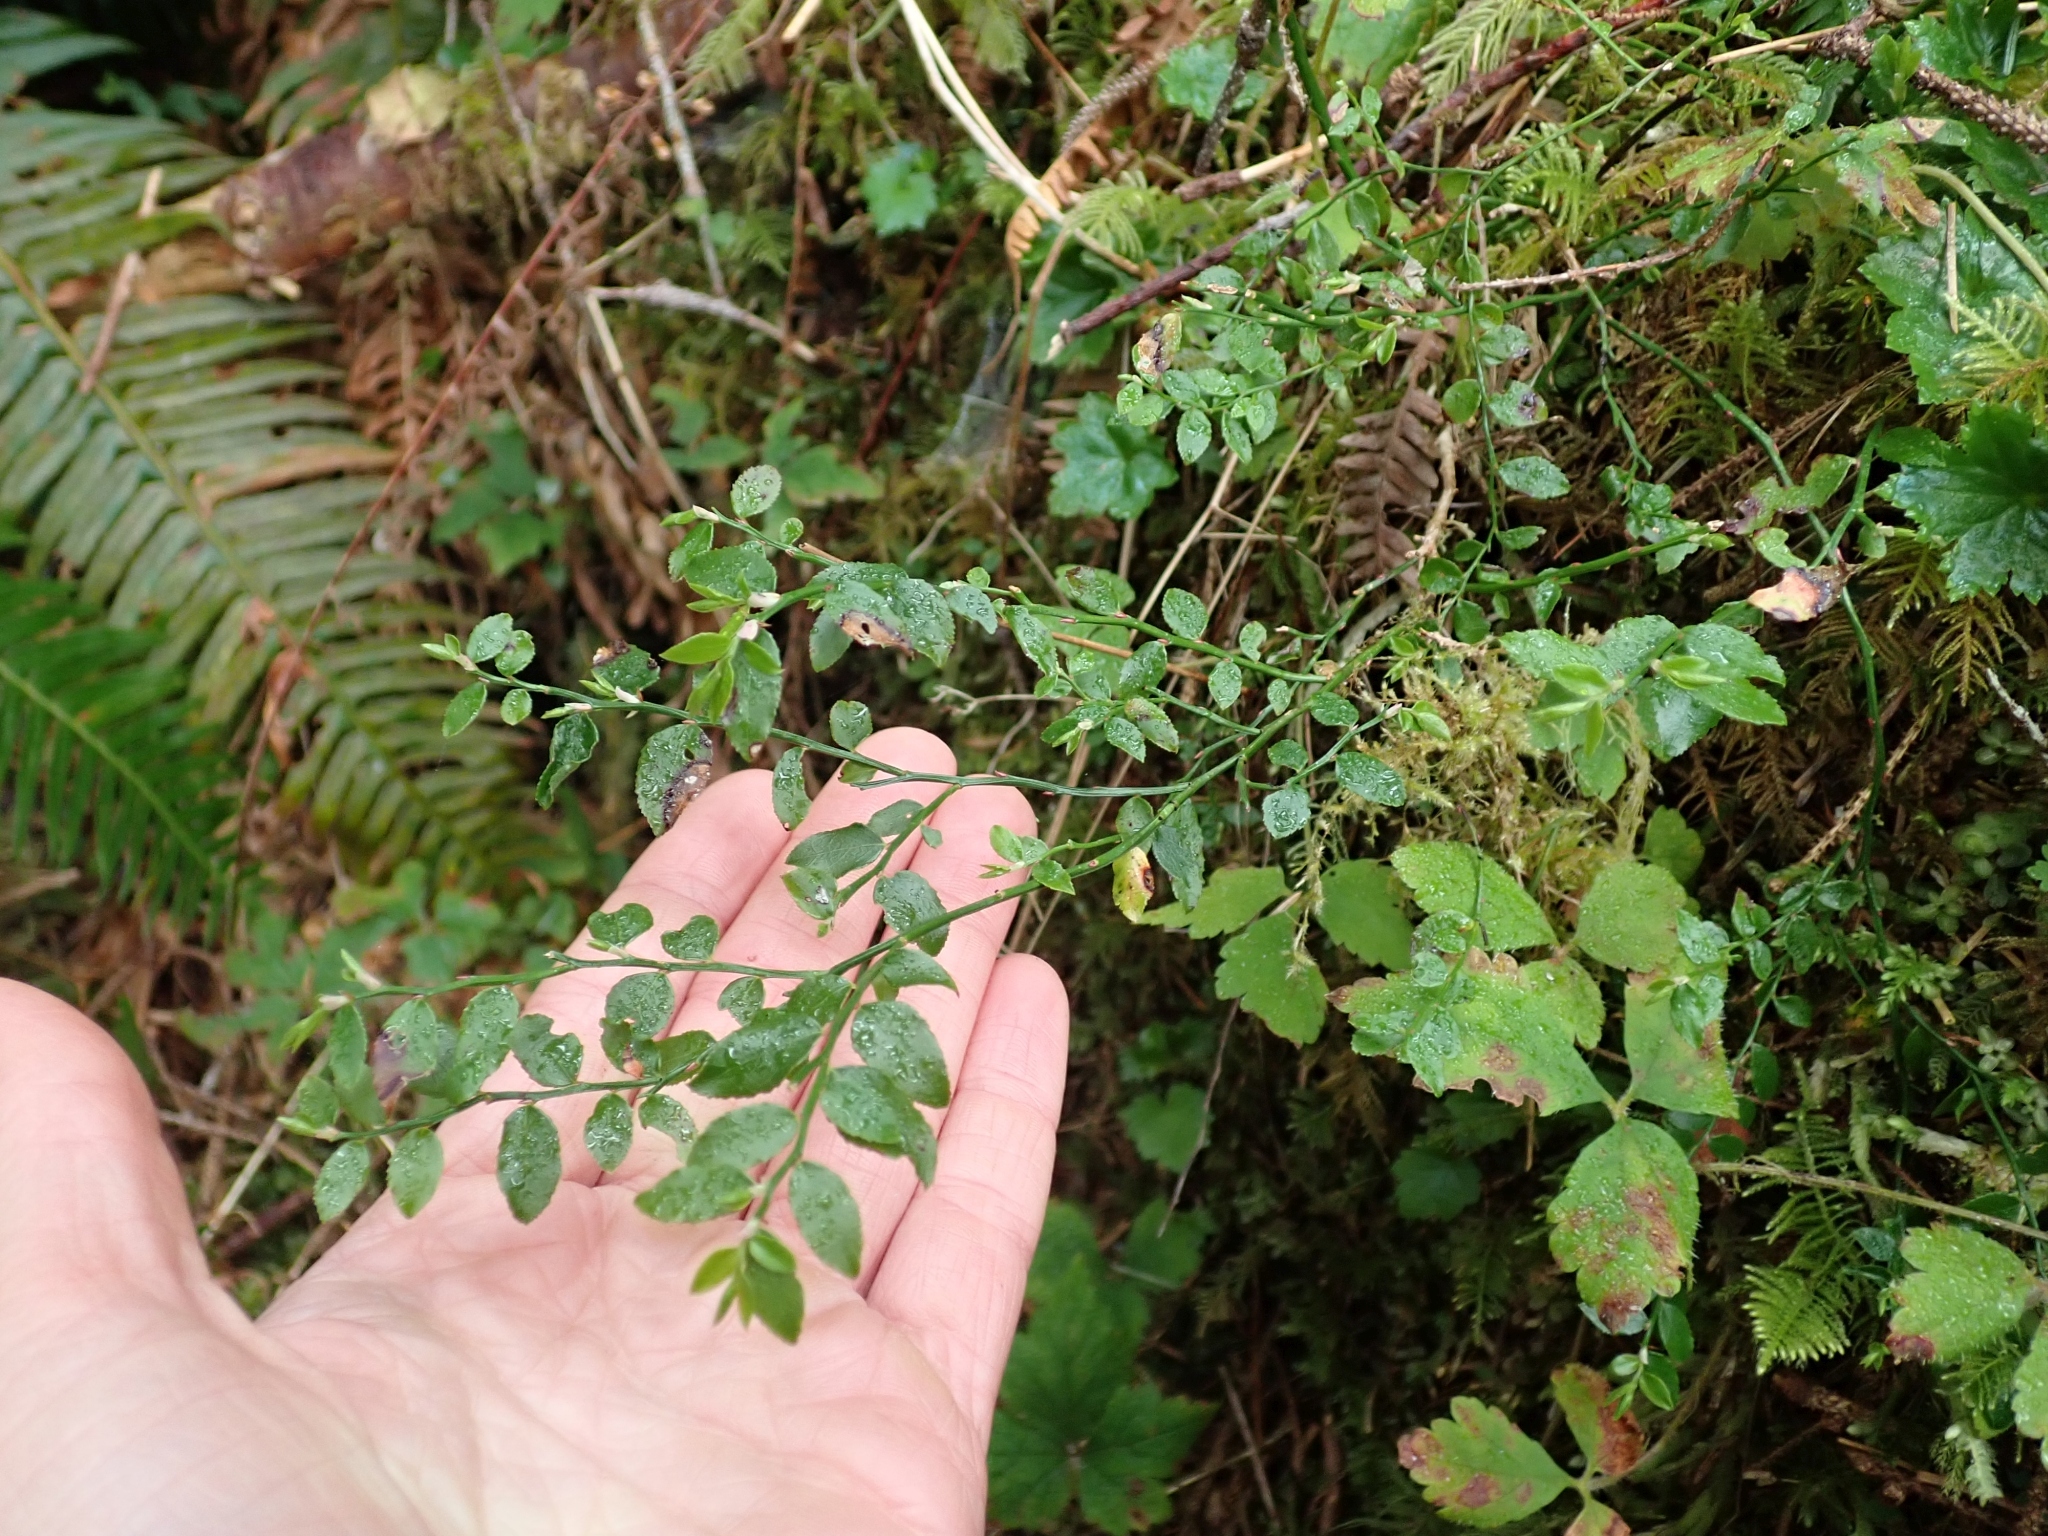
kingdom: Plantae
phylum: Tracheophyta
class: Magnoliopsida
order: Ericales
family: Ericaceae
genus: Vaccinium
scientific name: Vaccinium parvifolium
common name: Red-huckleberry
